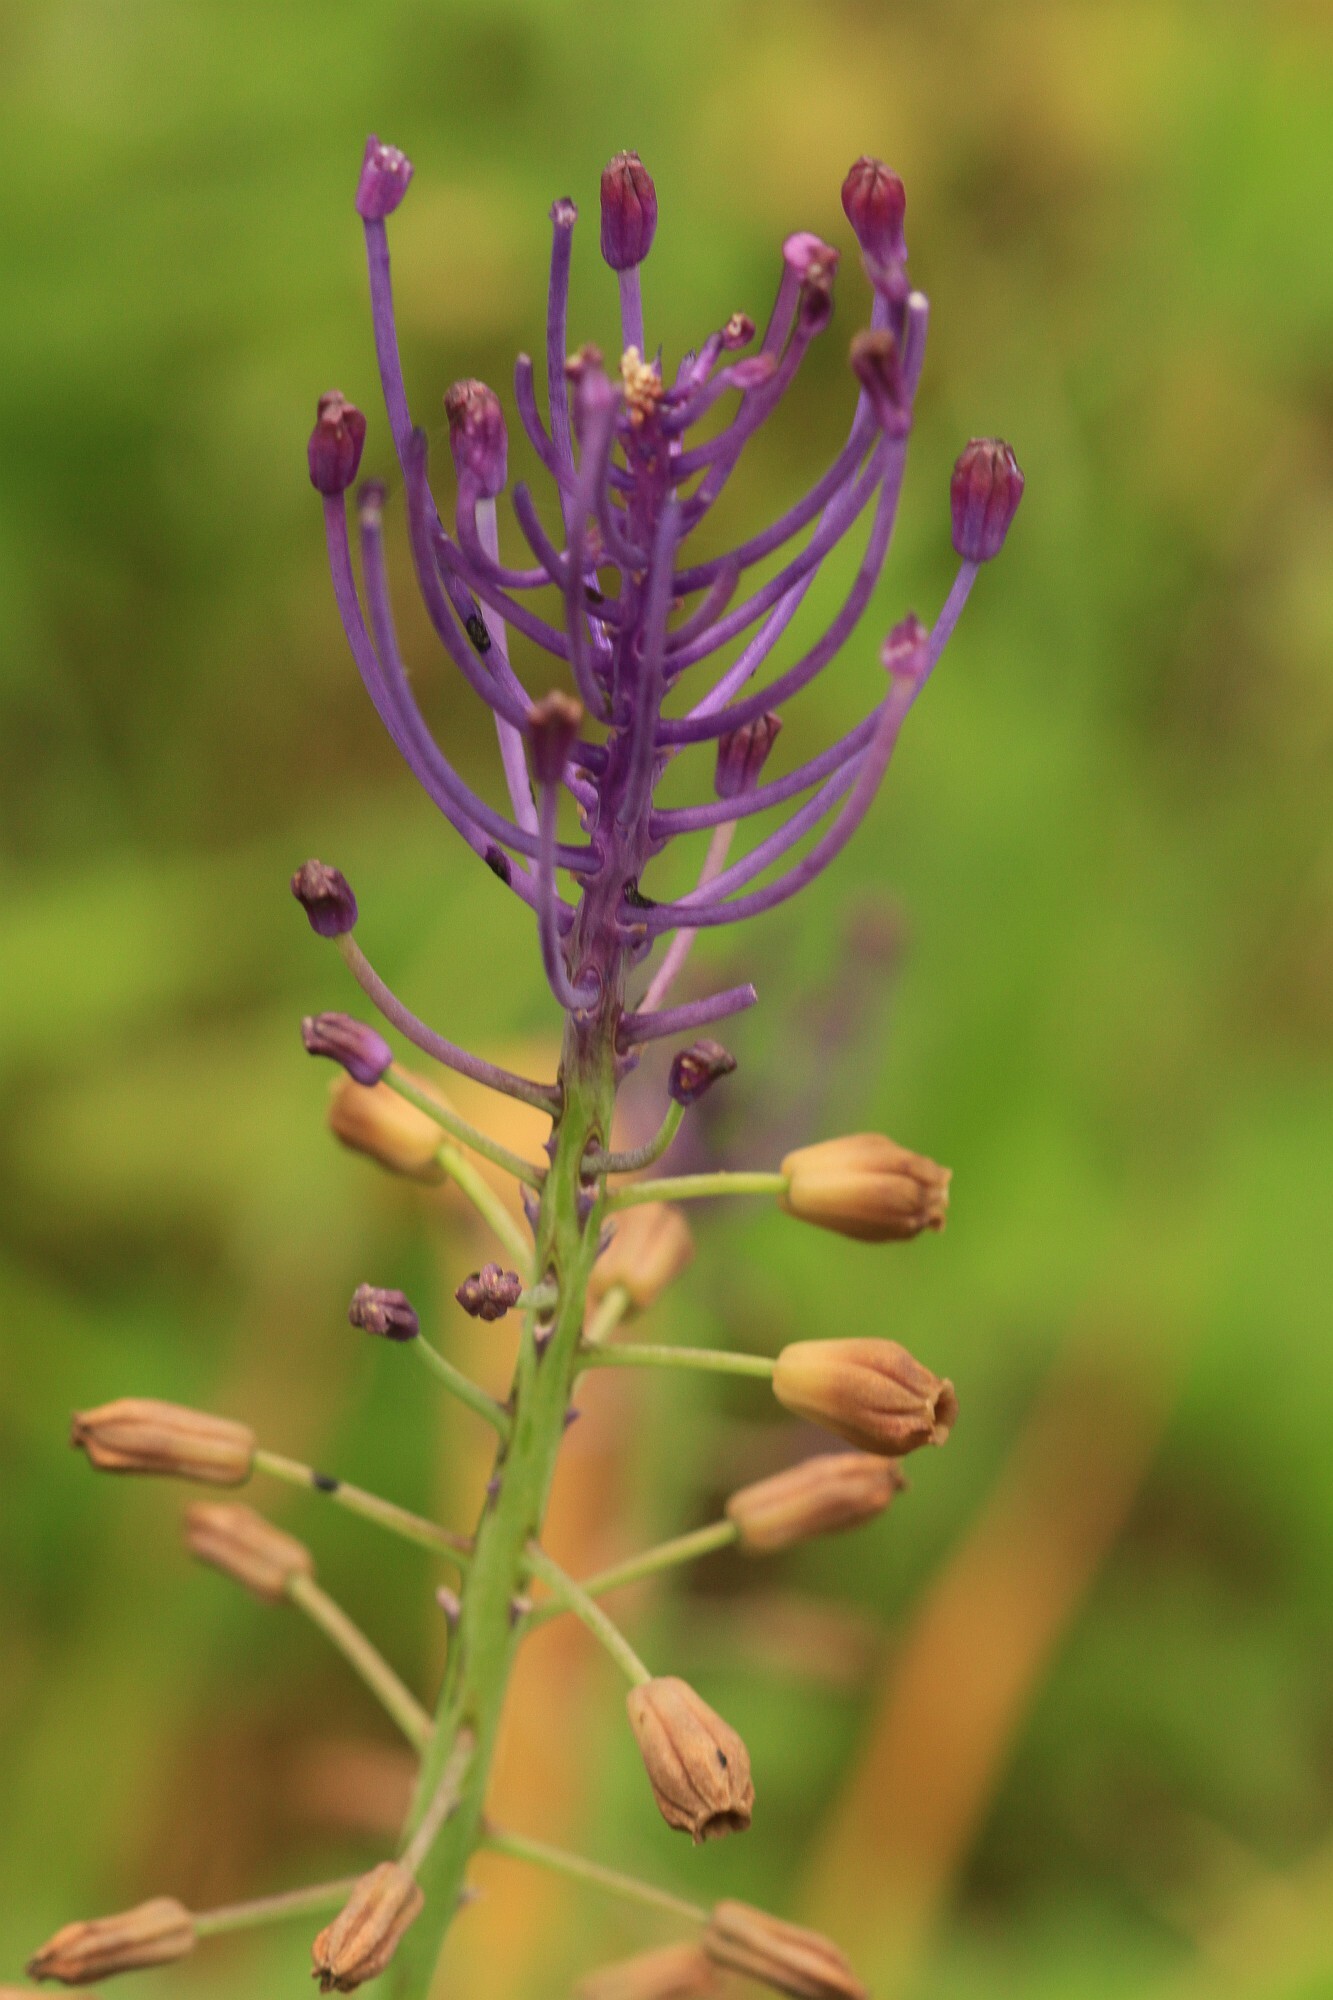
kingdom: Plantae
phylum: Tracheophyta
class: Liliopsida
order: Asparagales
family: Asparagaceae
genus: Muscari
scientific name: Muscari comosum
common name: Tassel hyacinth
